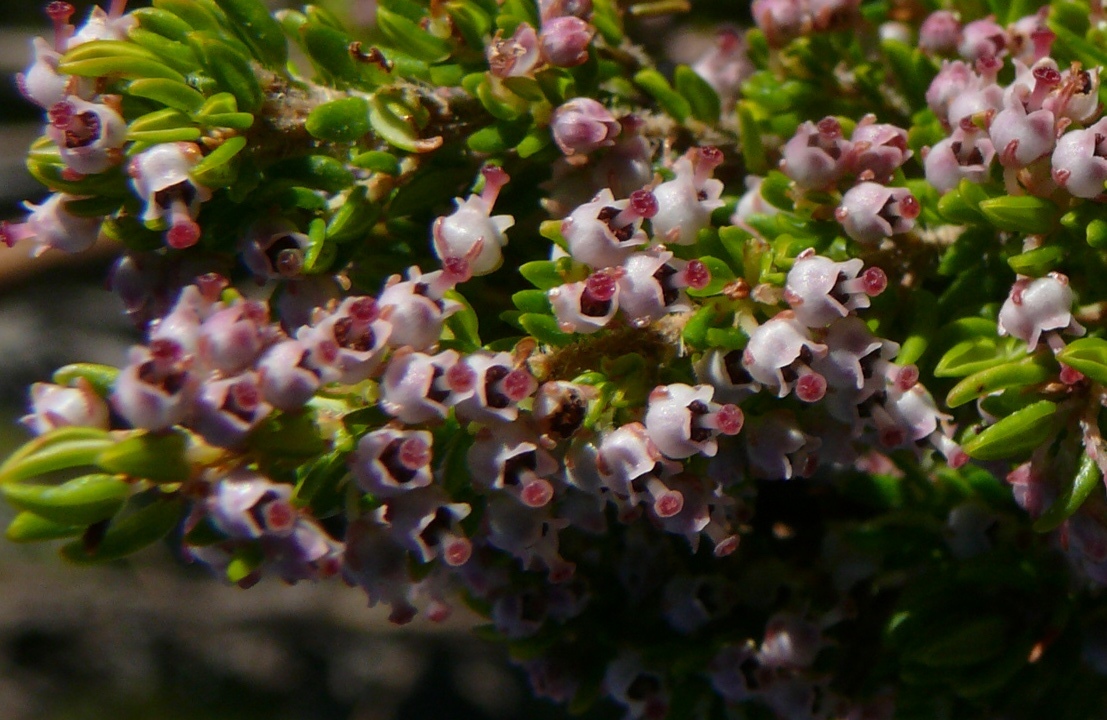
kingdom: Plantae
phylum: Tracheophyta
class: Magnoliopsida
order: Ericales
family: Ericaceae
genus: Erica
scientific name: Erica hispidula
